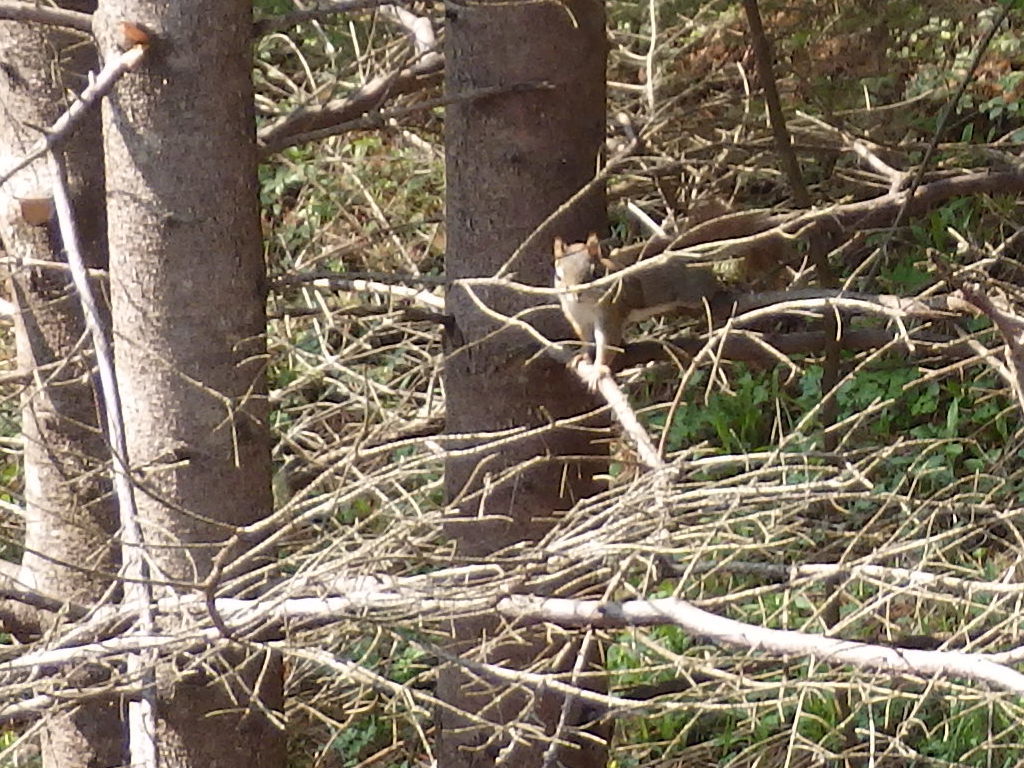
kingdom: Animalia
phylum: Chordata
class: Mammalia
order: Rodentia
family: Sciuridae
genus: Tamiasciurus
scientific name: Tamiasciurus hudsonicus
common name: Red squirrel
